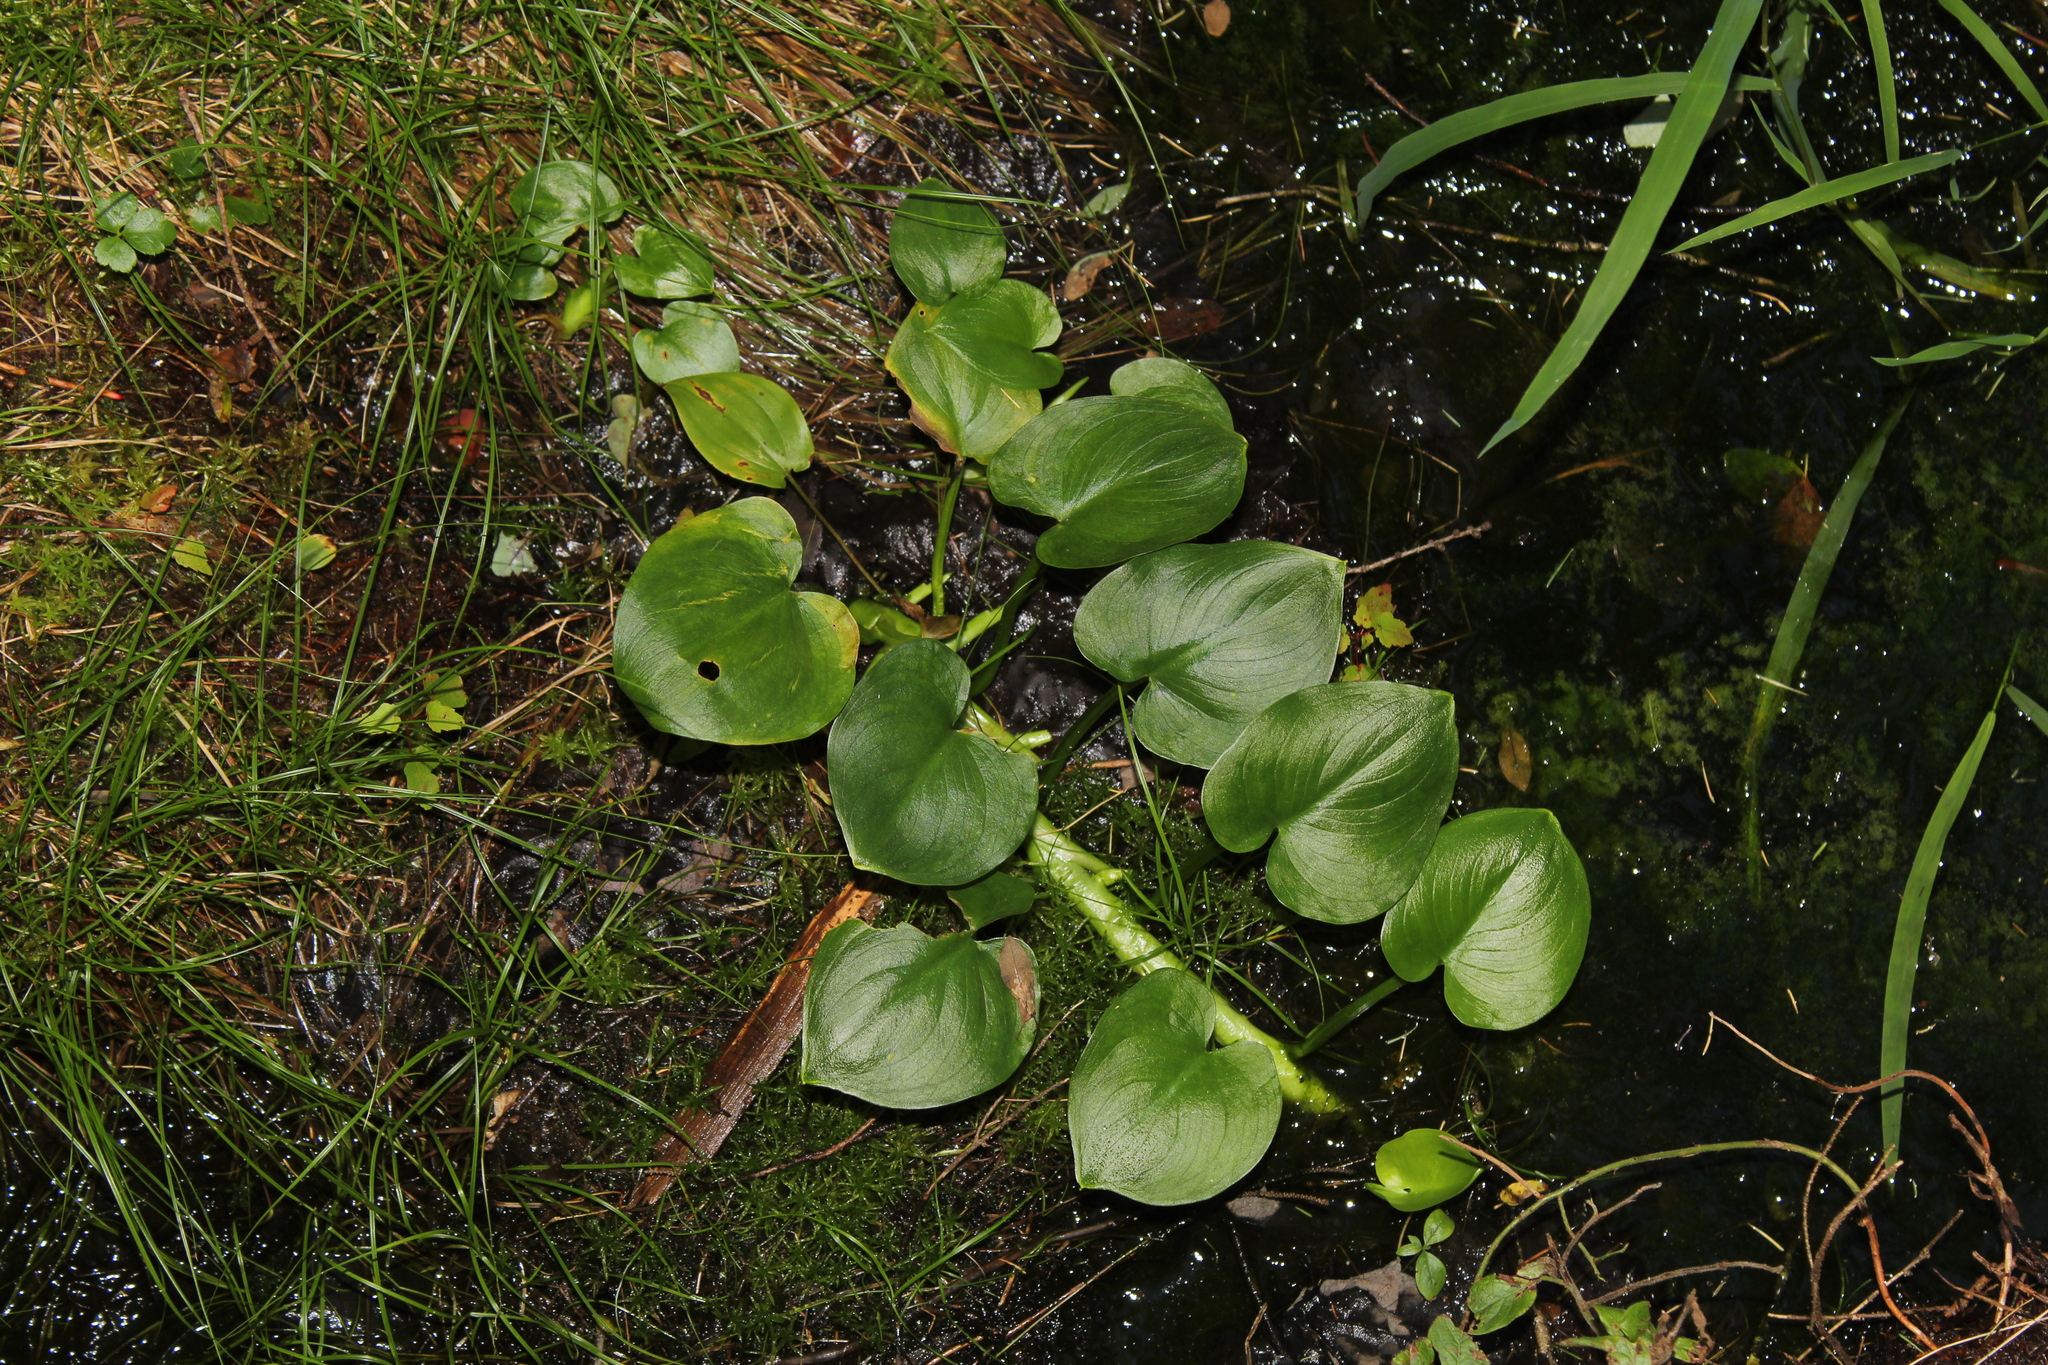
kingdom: Plantae
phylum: Tracheophyta
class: Liliopsida
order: Alismatales
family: Araceae
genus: Calla
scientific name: Calla palustris
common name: Bog arum
